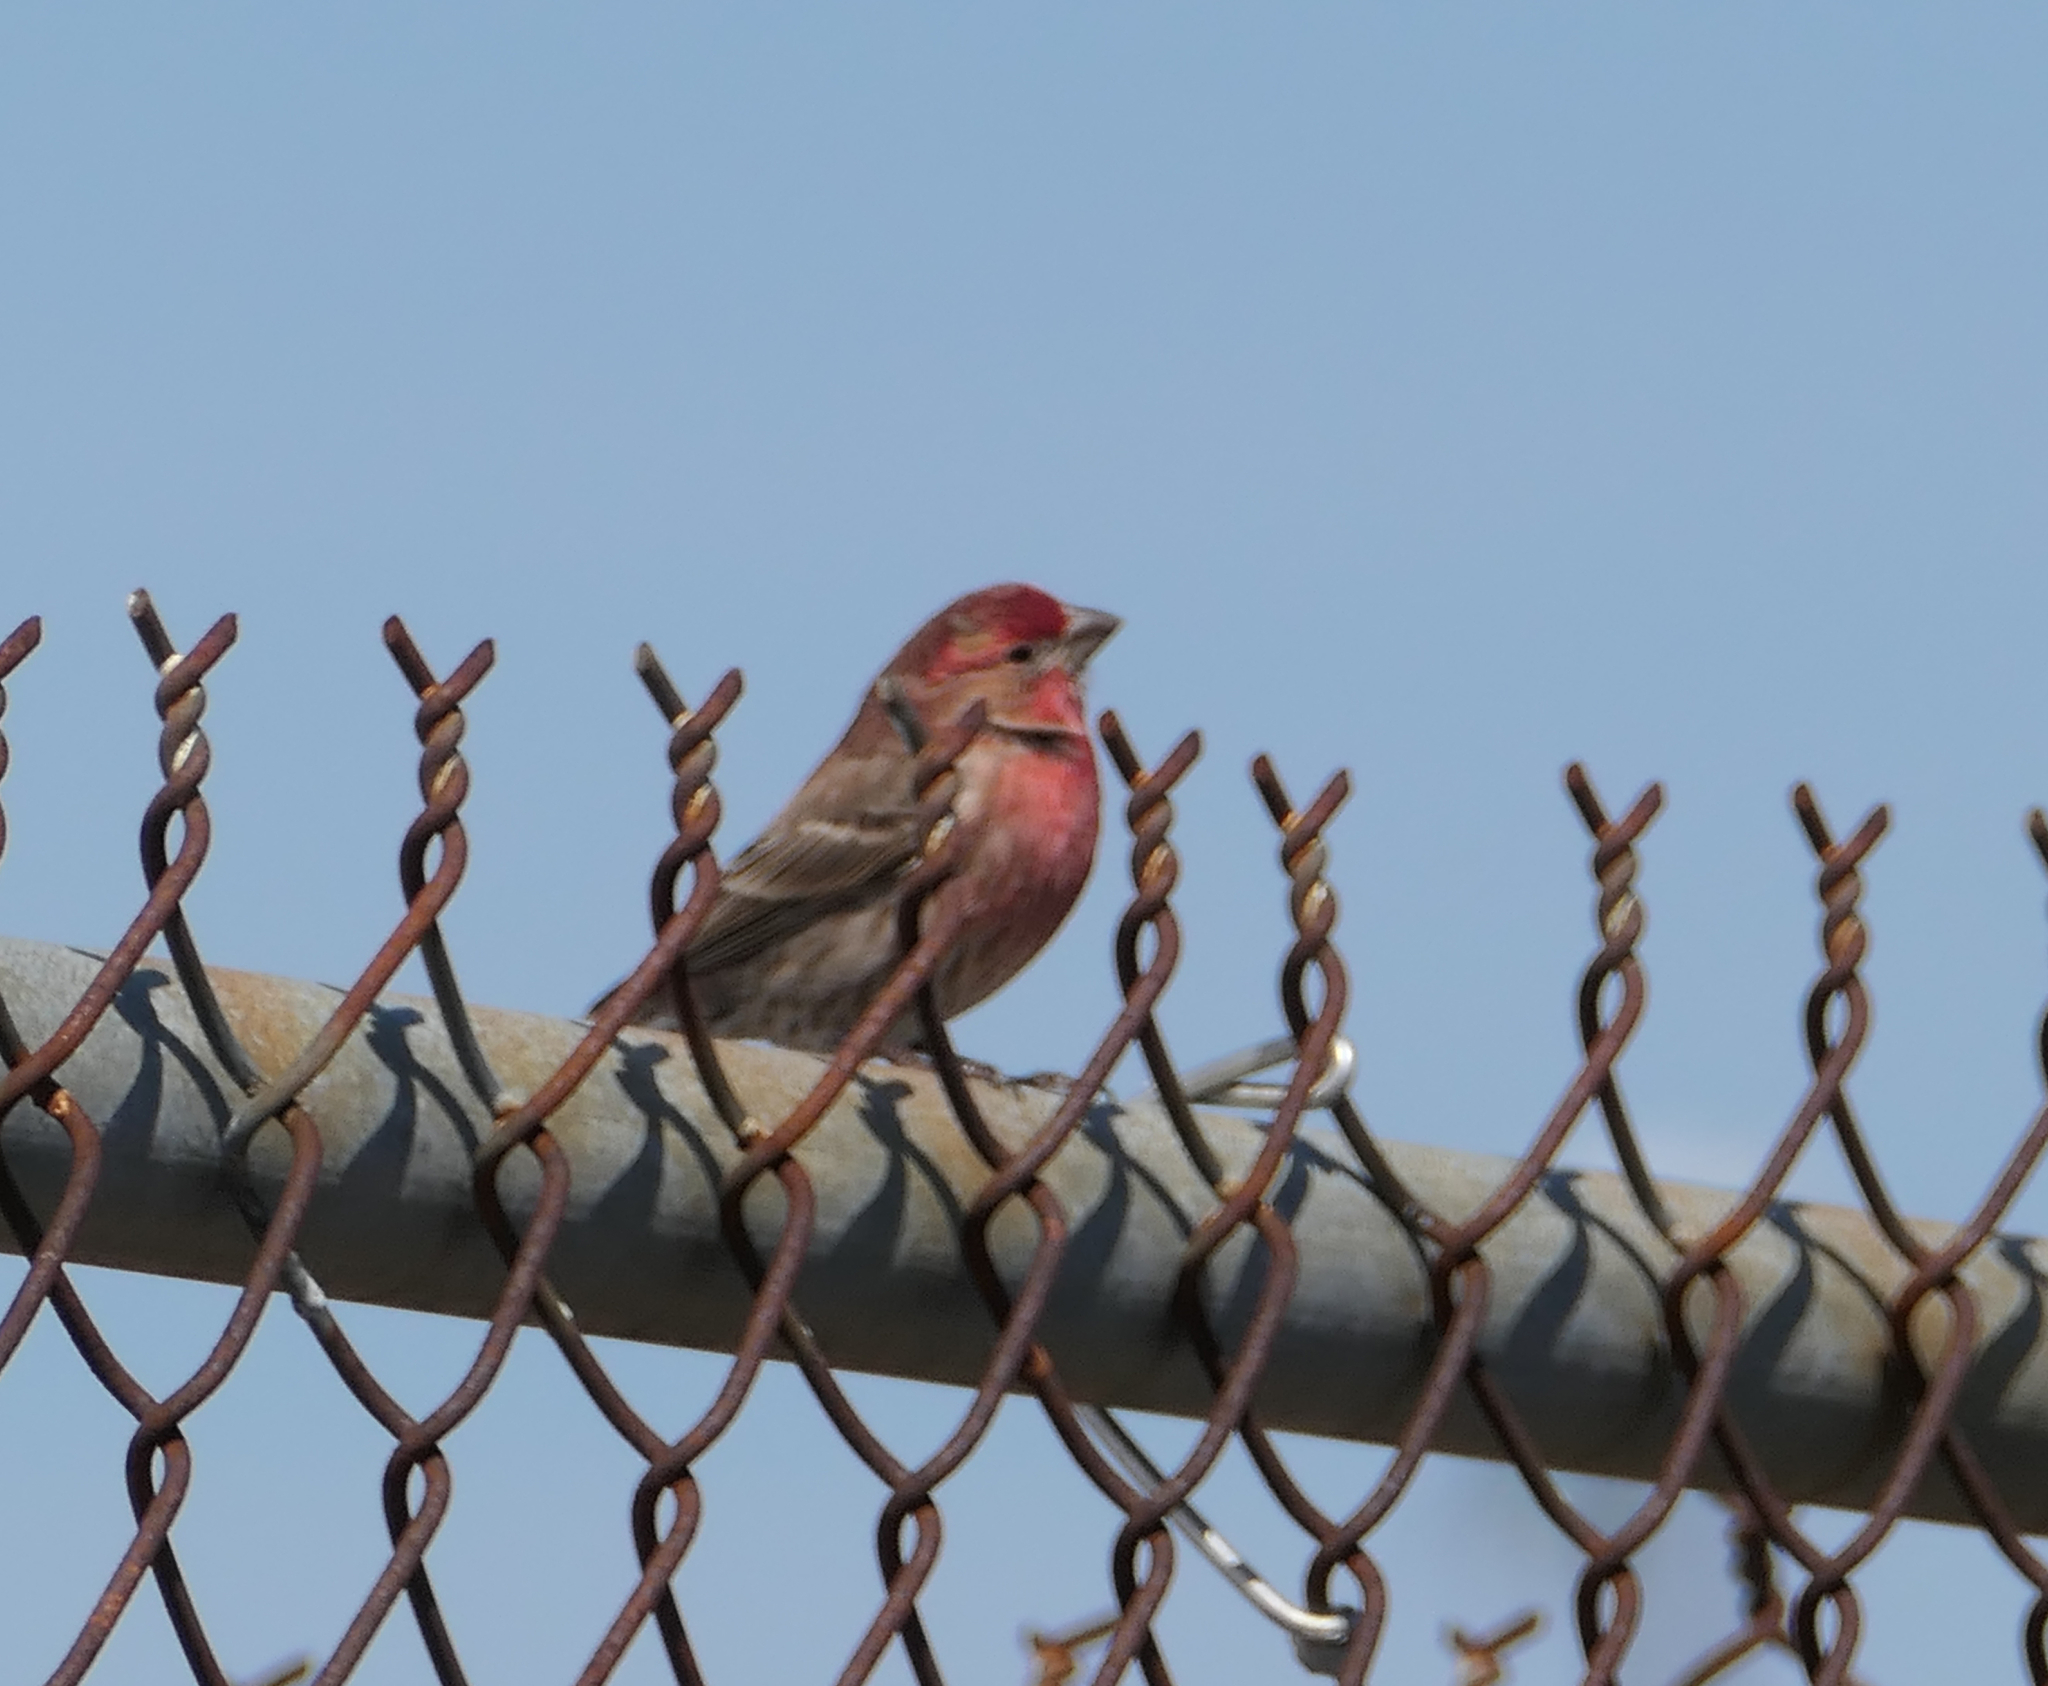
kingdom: Animalia
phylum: Chordata
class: Aves
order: Passeriformes
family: Fringillidae
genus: Haemorhous
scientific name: Haemorhous mexicanus
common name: House finch
